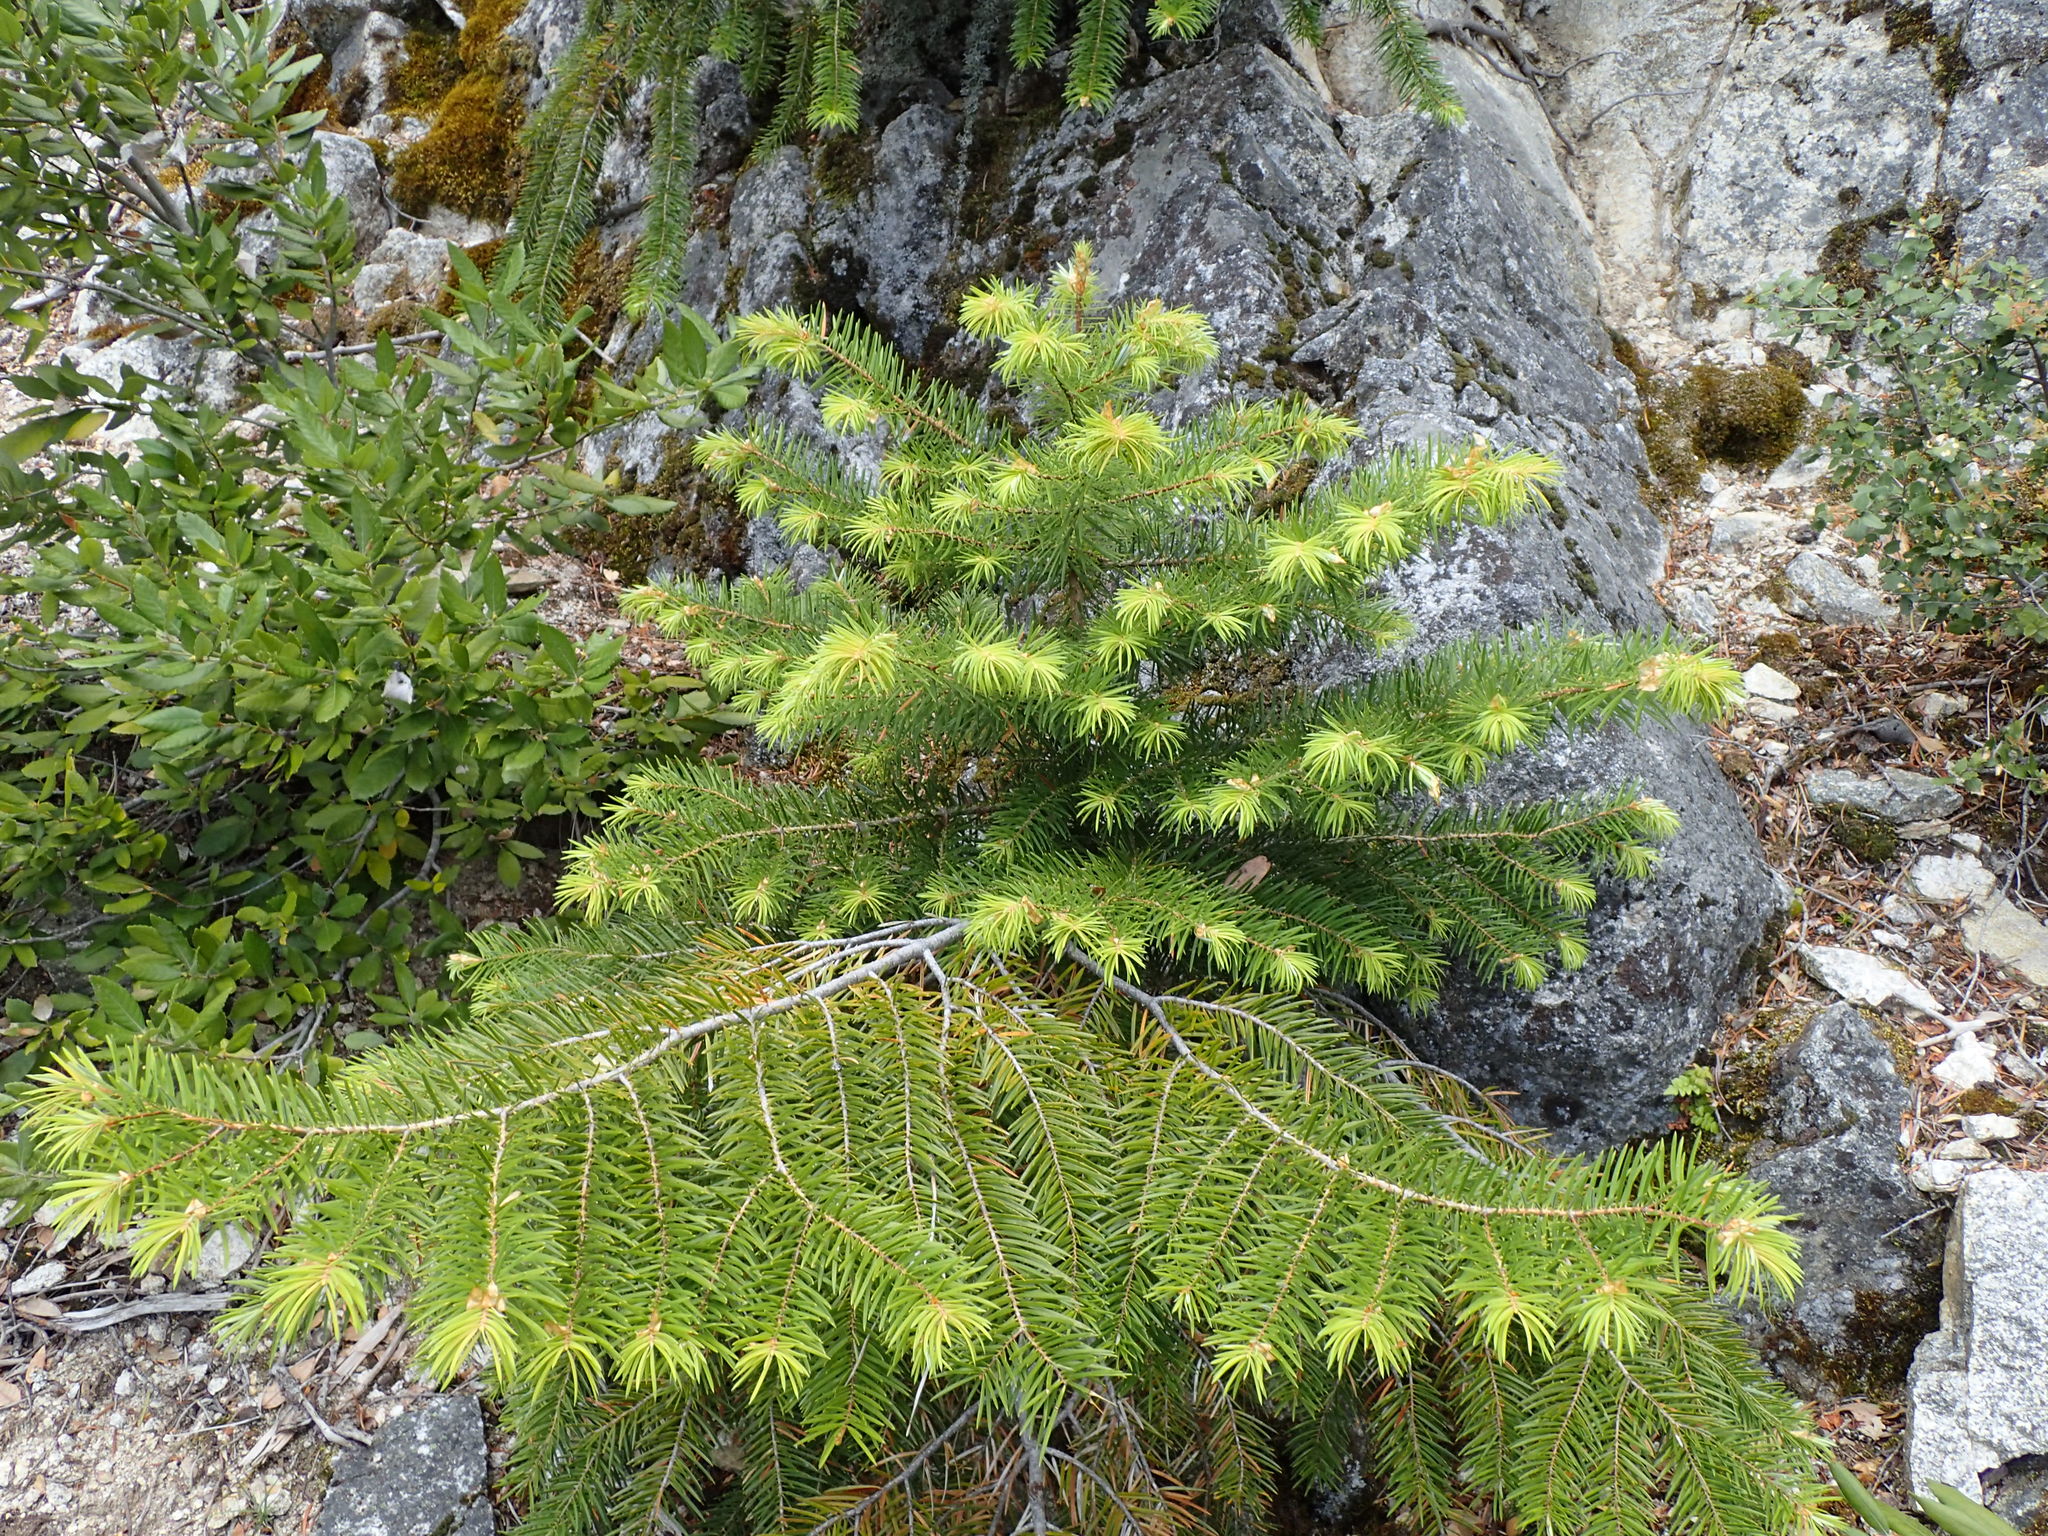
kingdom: Plantae
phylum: Tracheophyta
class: Pinopsida
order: Pinales
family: Pinaceae
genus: Abies
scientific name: Abies bracteata
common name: Bristlecone fir
